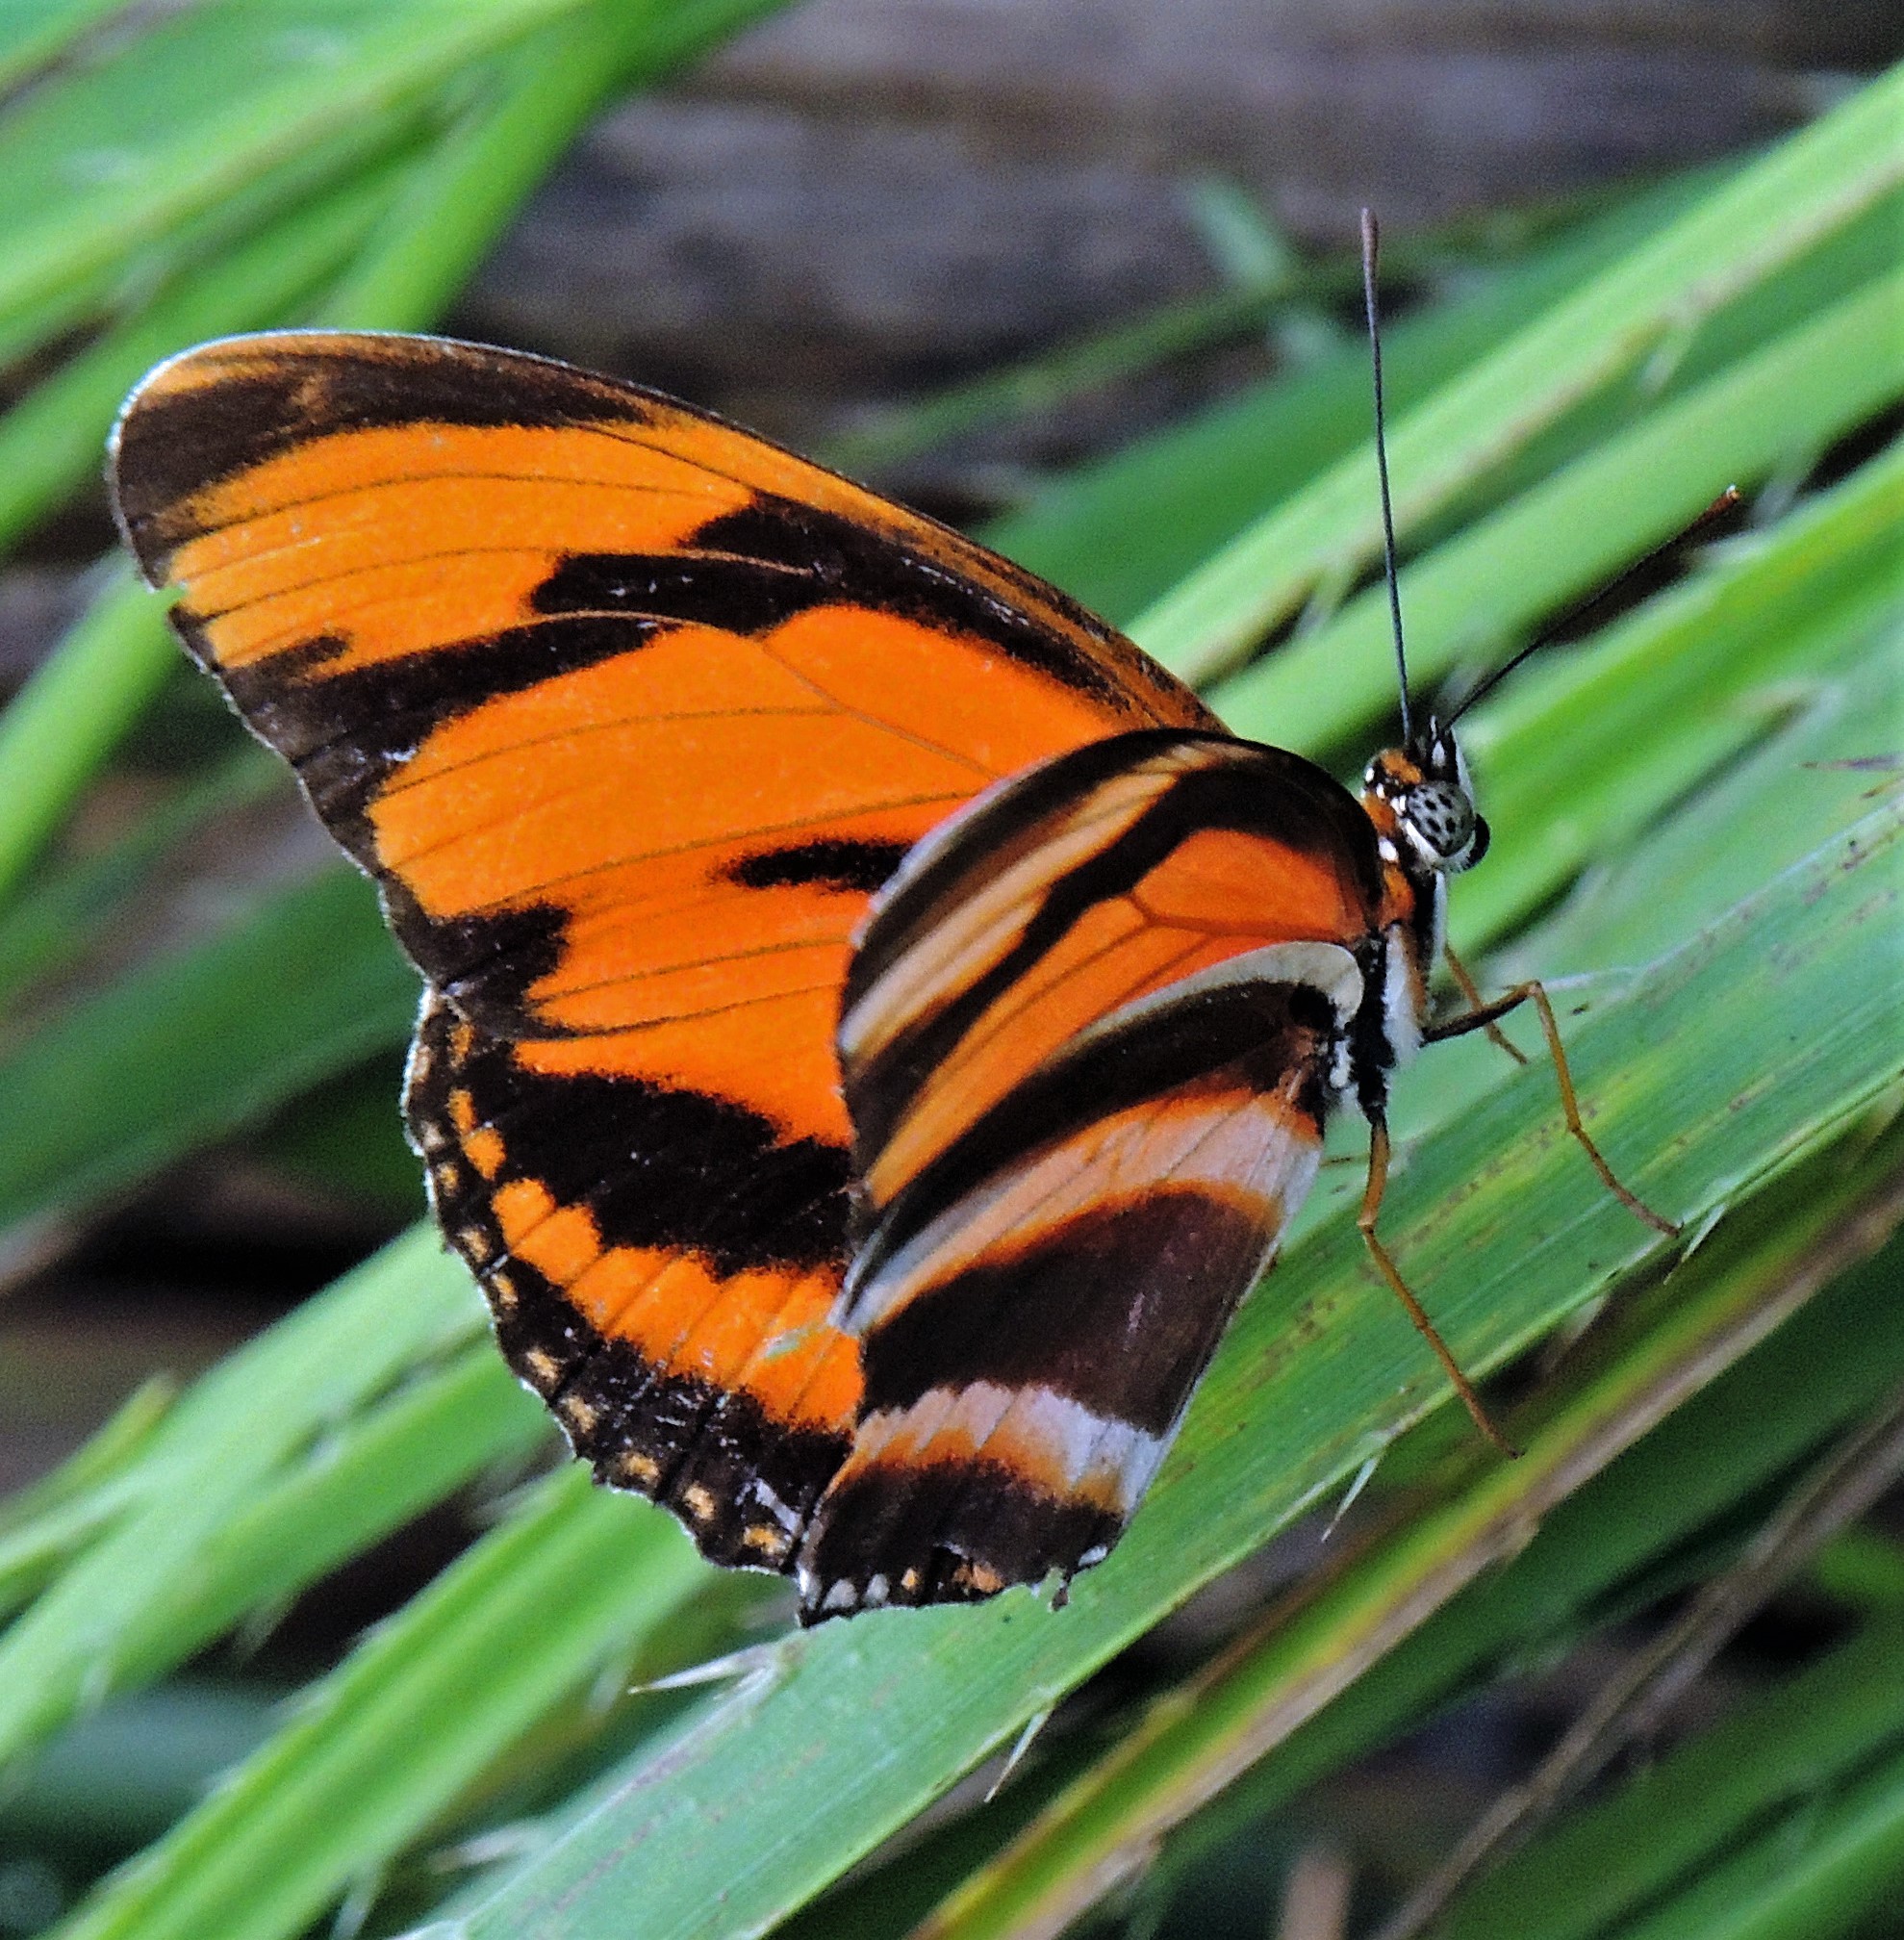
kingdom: Animalia
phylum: Arthropoda
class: Insecta
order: Lepidoptera
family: Nymphalidae
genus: Dryadula
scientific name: Dryadula phaetusa
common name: Banded orange heliconian
